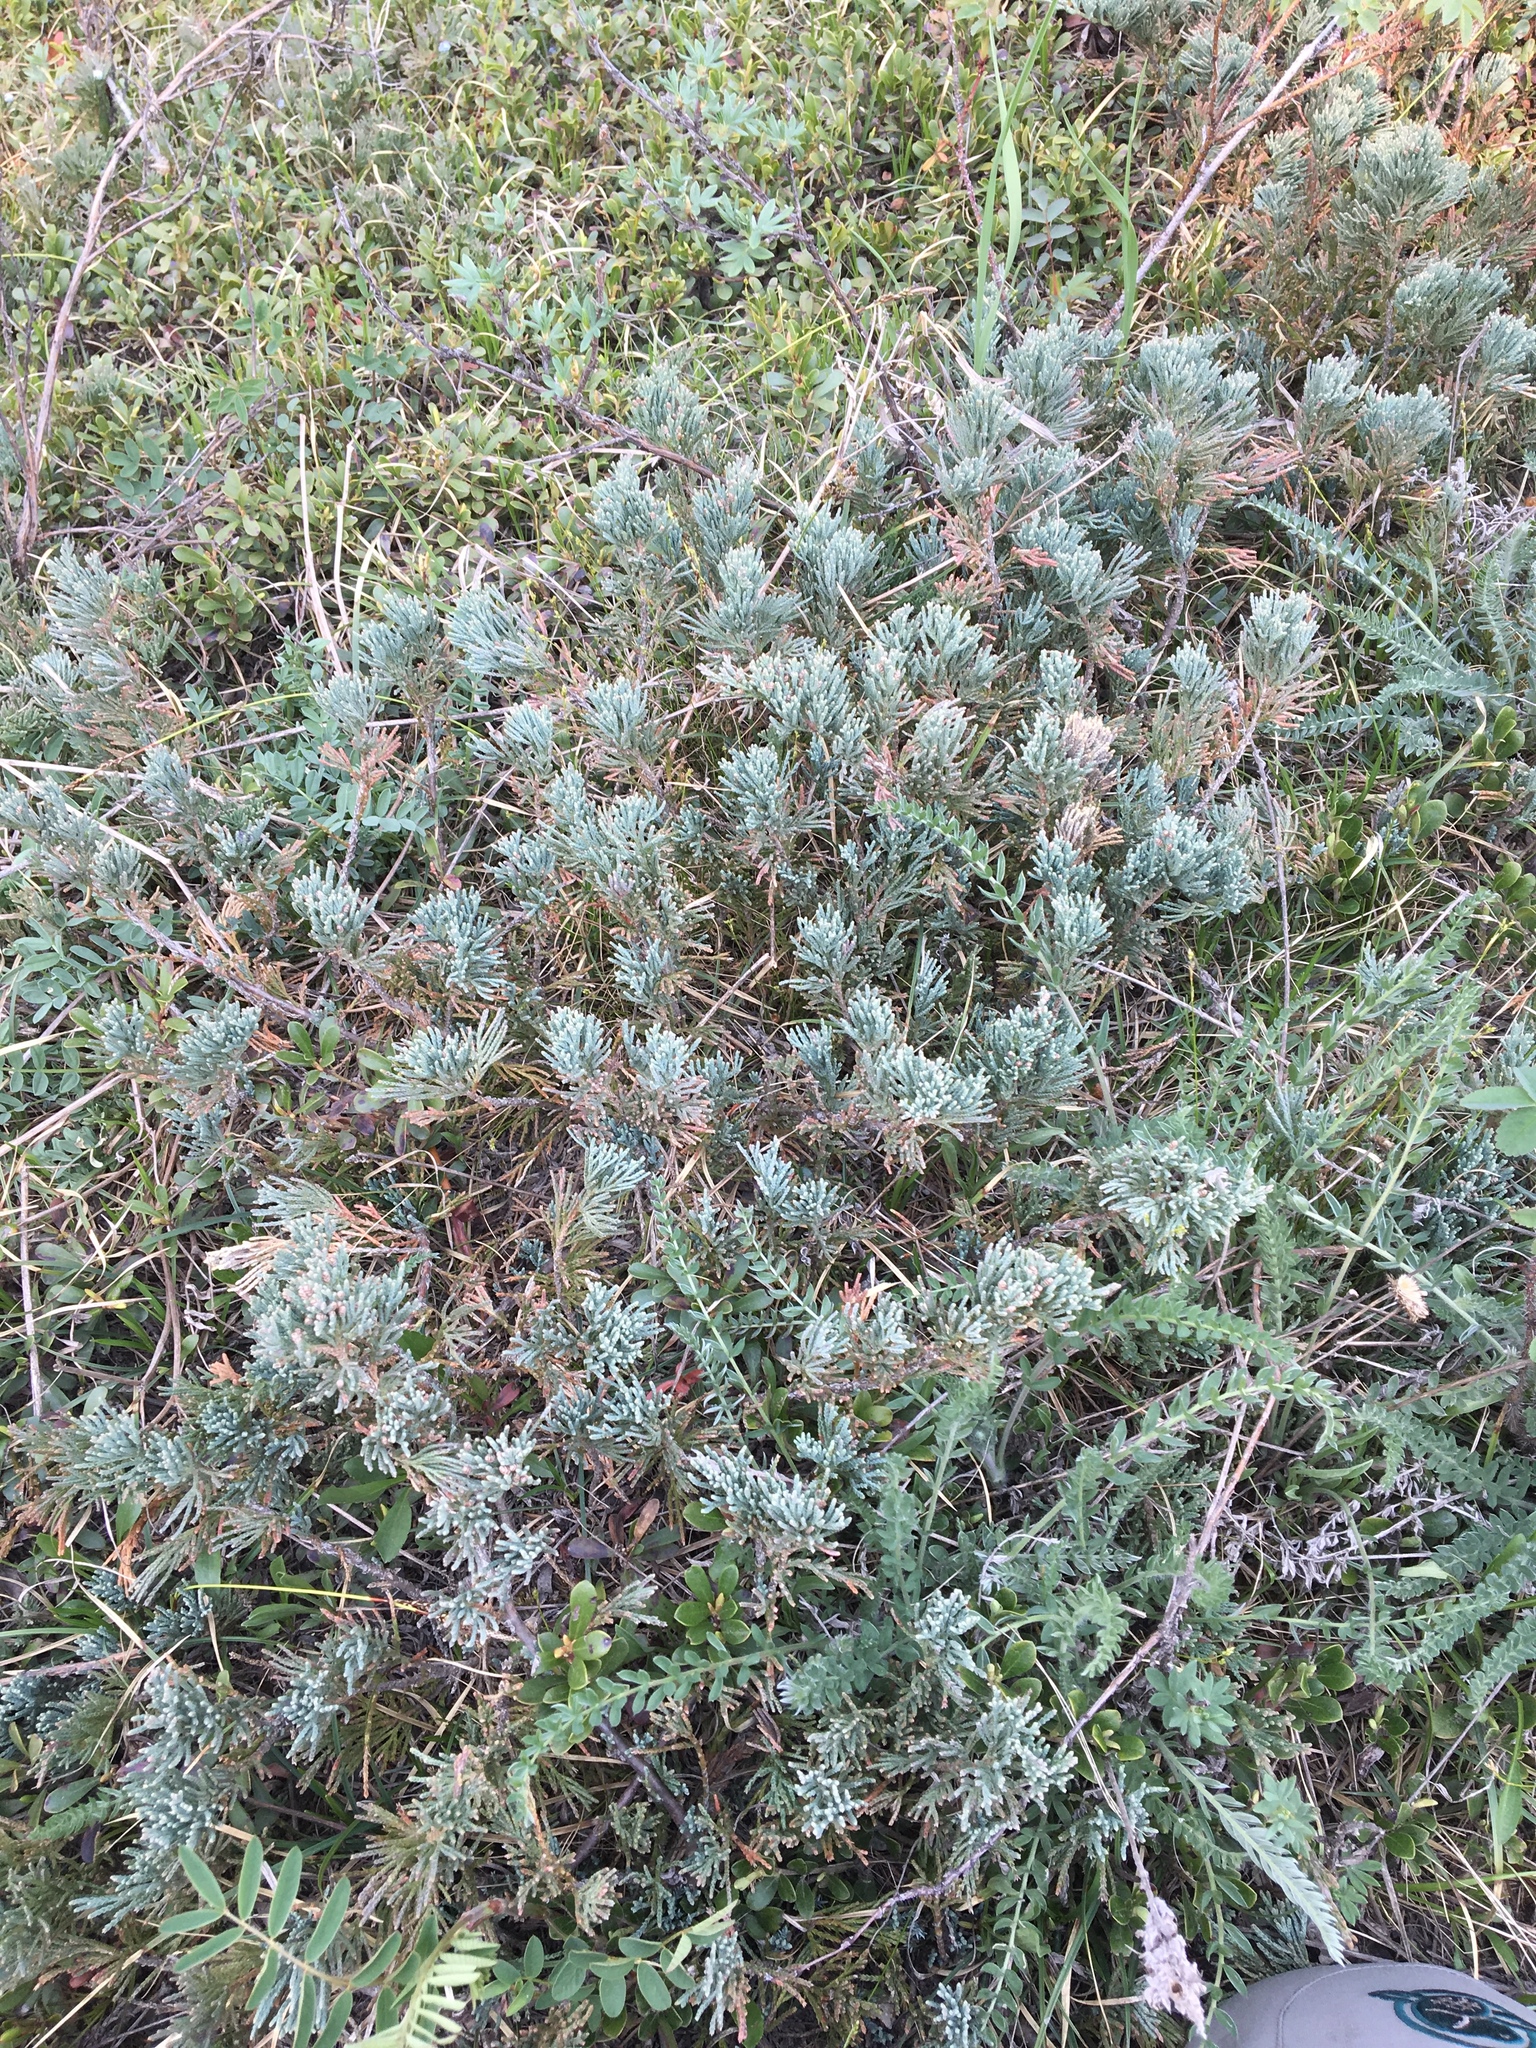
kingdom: Plantae
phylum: Tracheophyta
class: Pinopsida
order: Pinales
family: Cupressaceae
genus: Juniperus
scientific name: Juniperus horizontalis
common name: Creeping juniper
